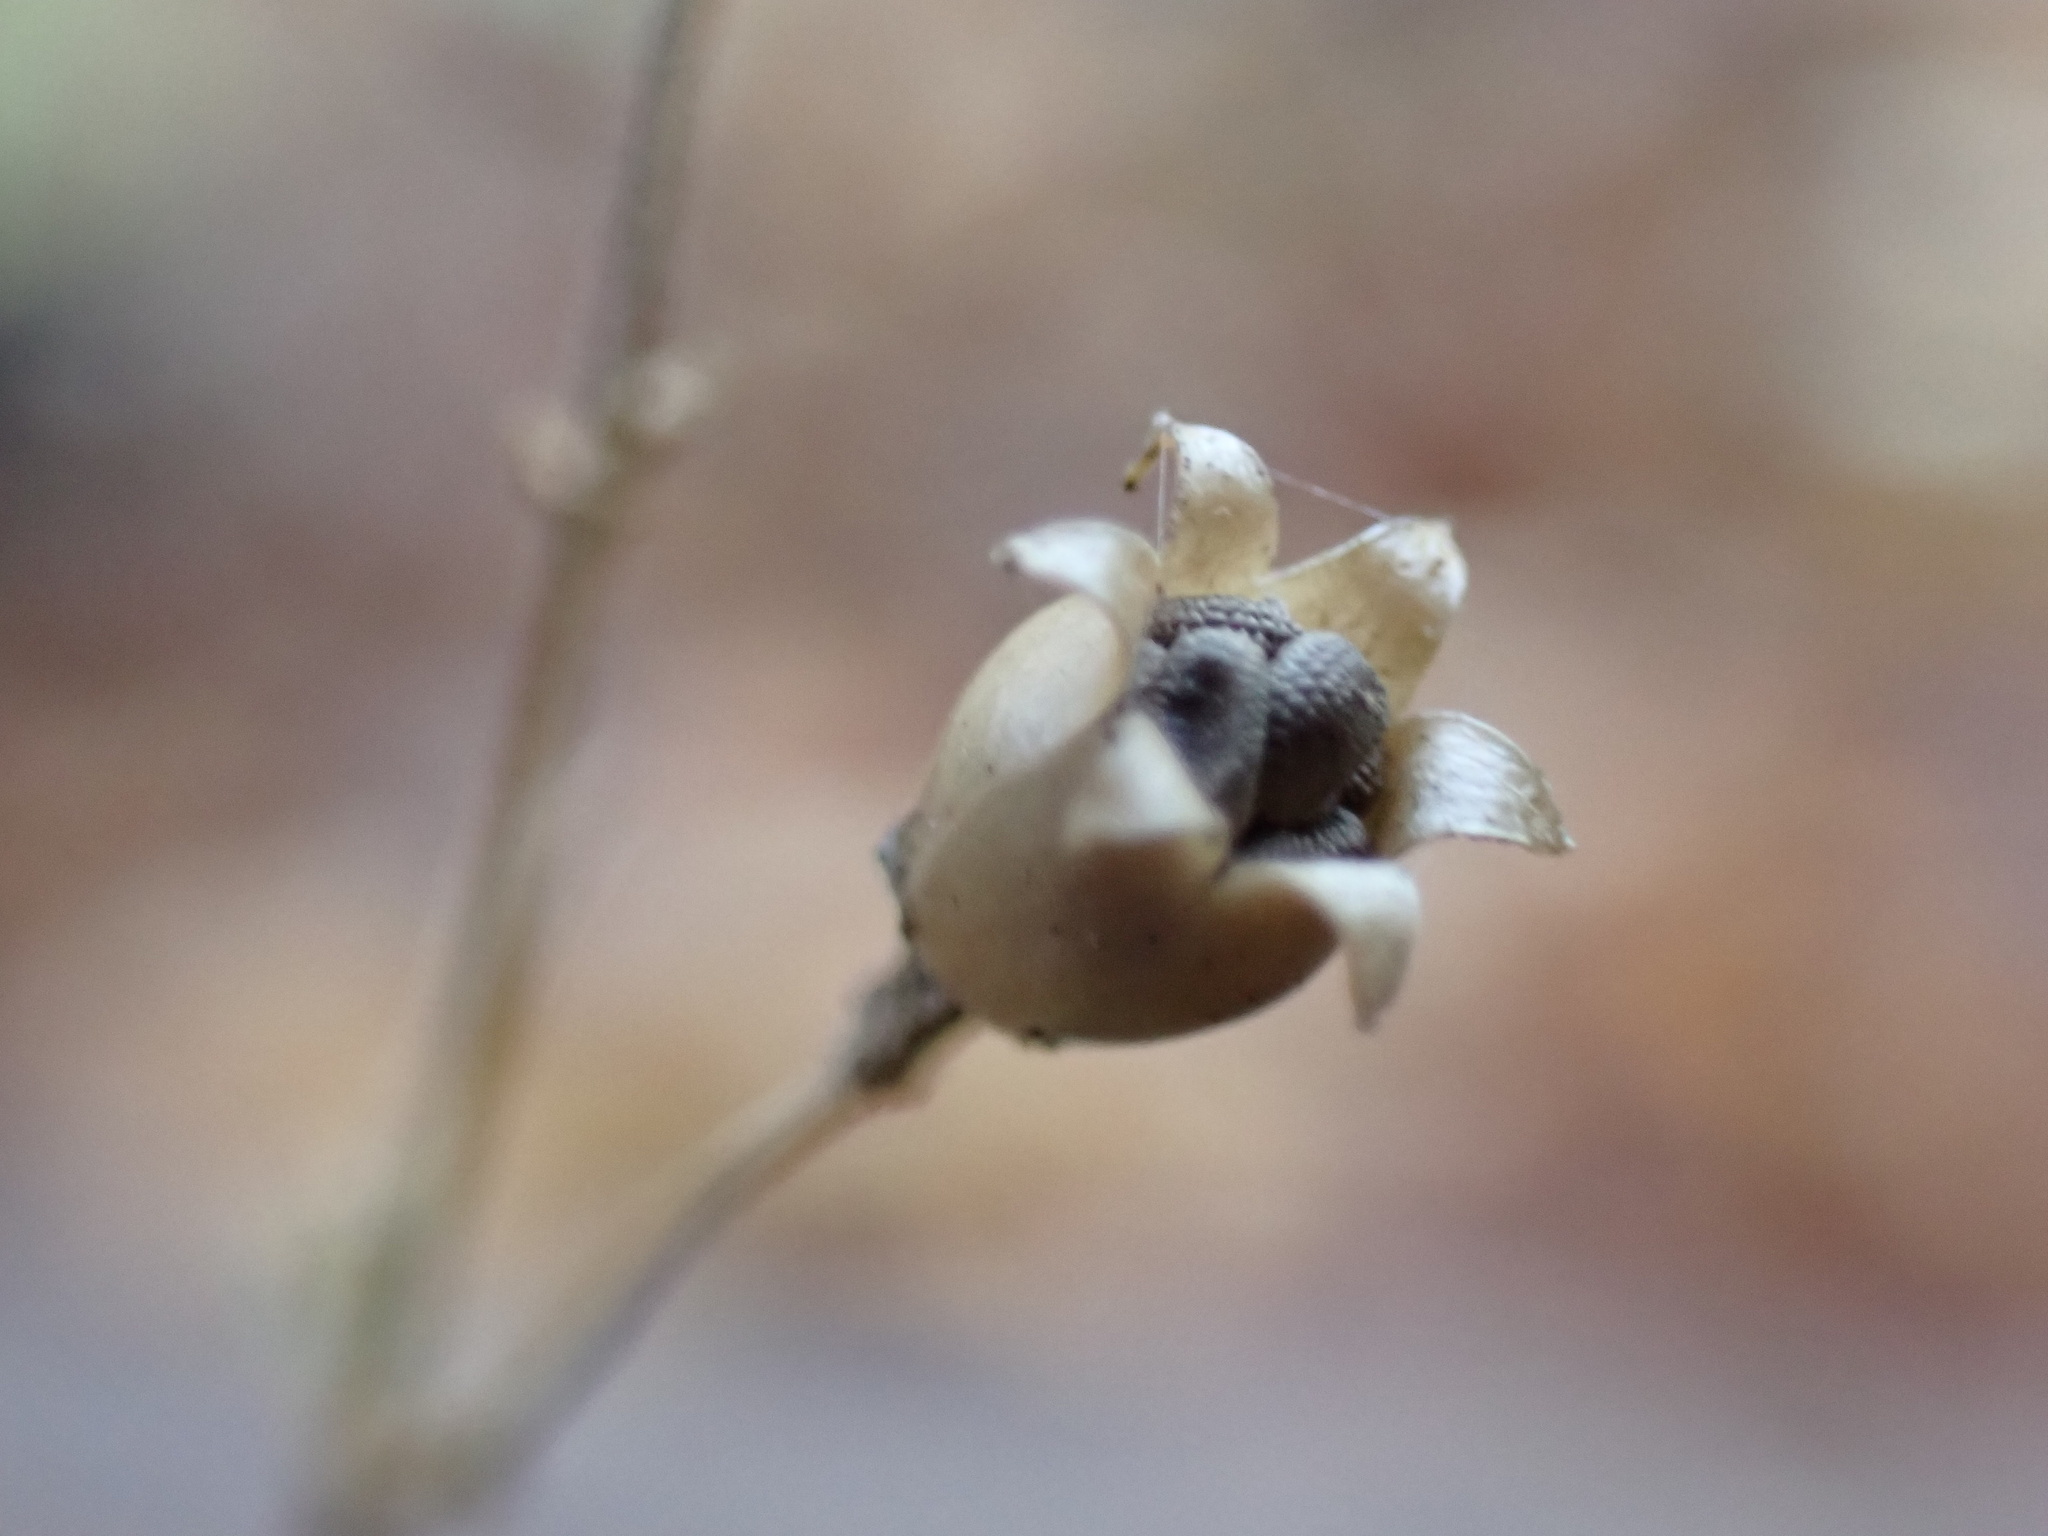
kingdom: Plantae
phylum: Tracheophyta
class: Magnoliopsida
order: Caryophyllales
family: Caryophyllaceae
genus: Silene
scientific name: Silene stellata
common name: Starry campion
